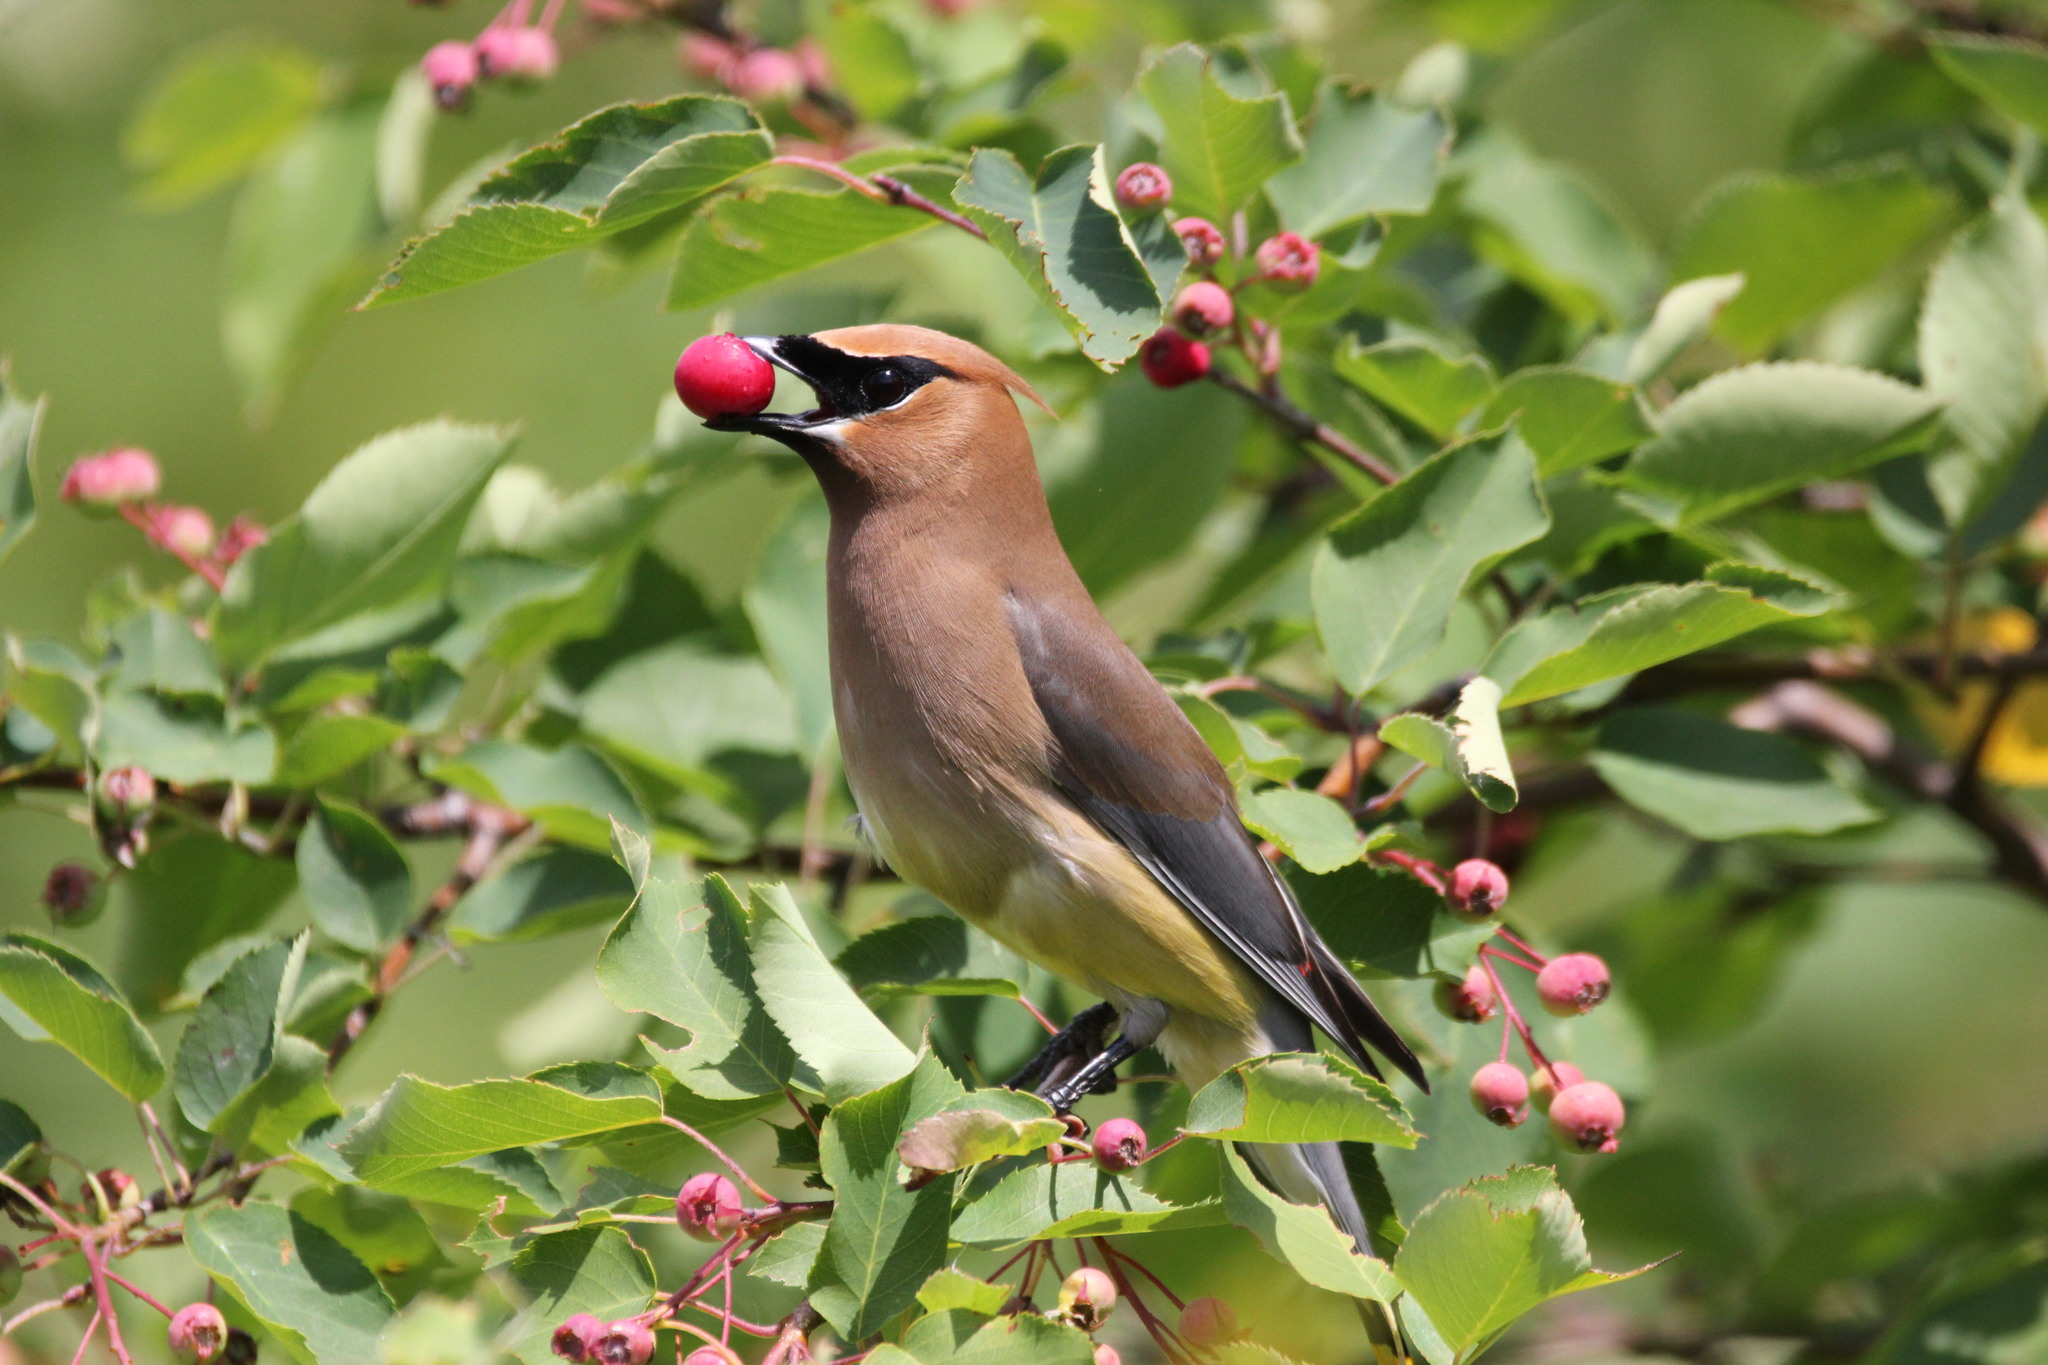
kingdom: Animalia
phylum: Chordata
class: Aves
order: Passeriformes
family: Bombycillidae
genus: Bombycilla
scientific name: Bombycilla cedrorum
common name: Cedar waxwing
